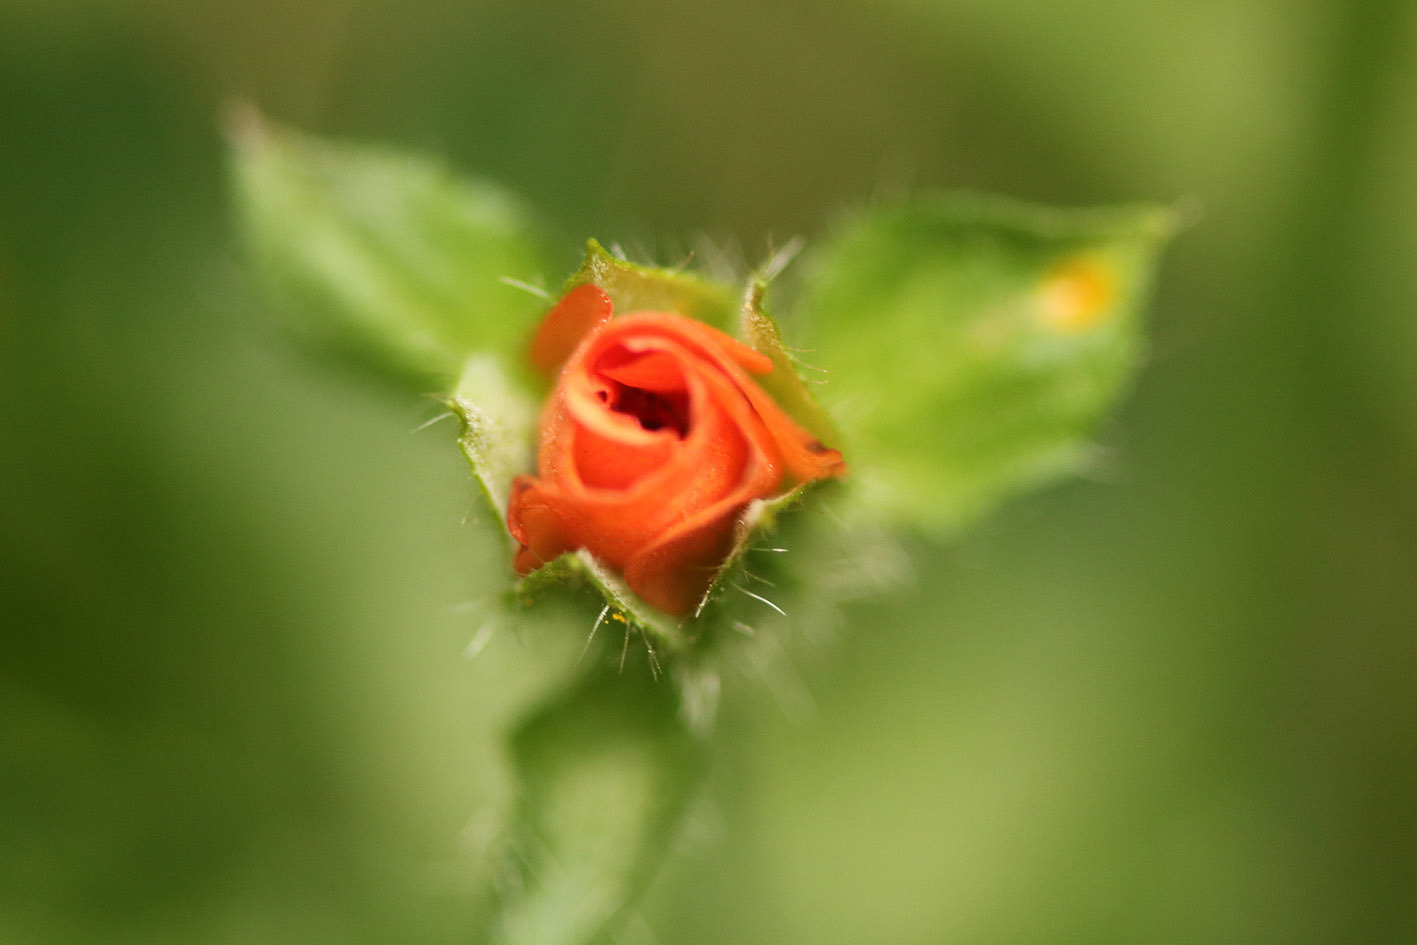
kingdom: Plantae
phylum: Tracheophyta
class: Magnoliopsida
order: Malvales
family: Malvaceae
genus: Modiola
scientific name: Modiola caroliniana
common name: Carolina bristlemallow
